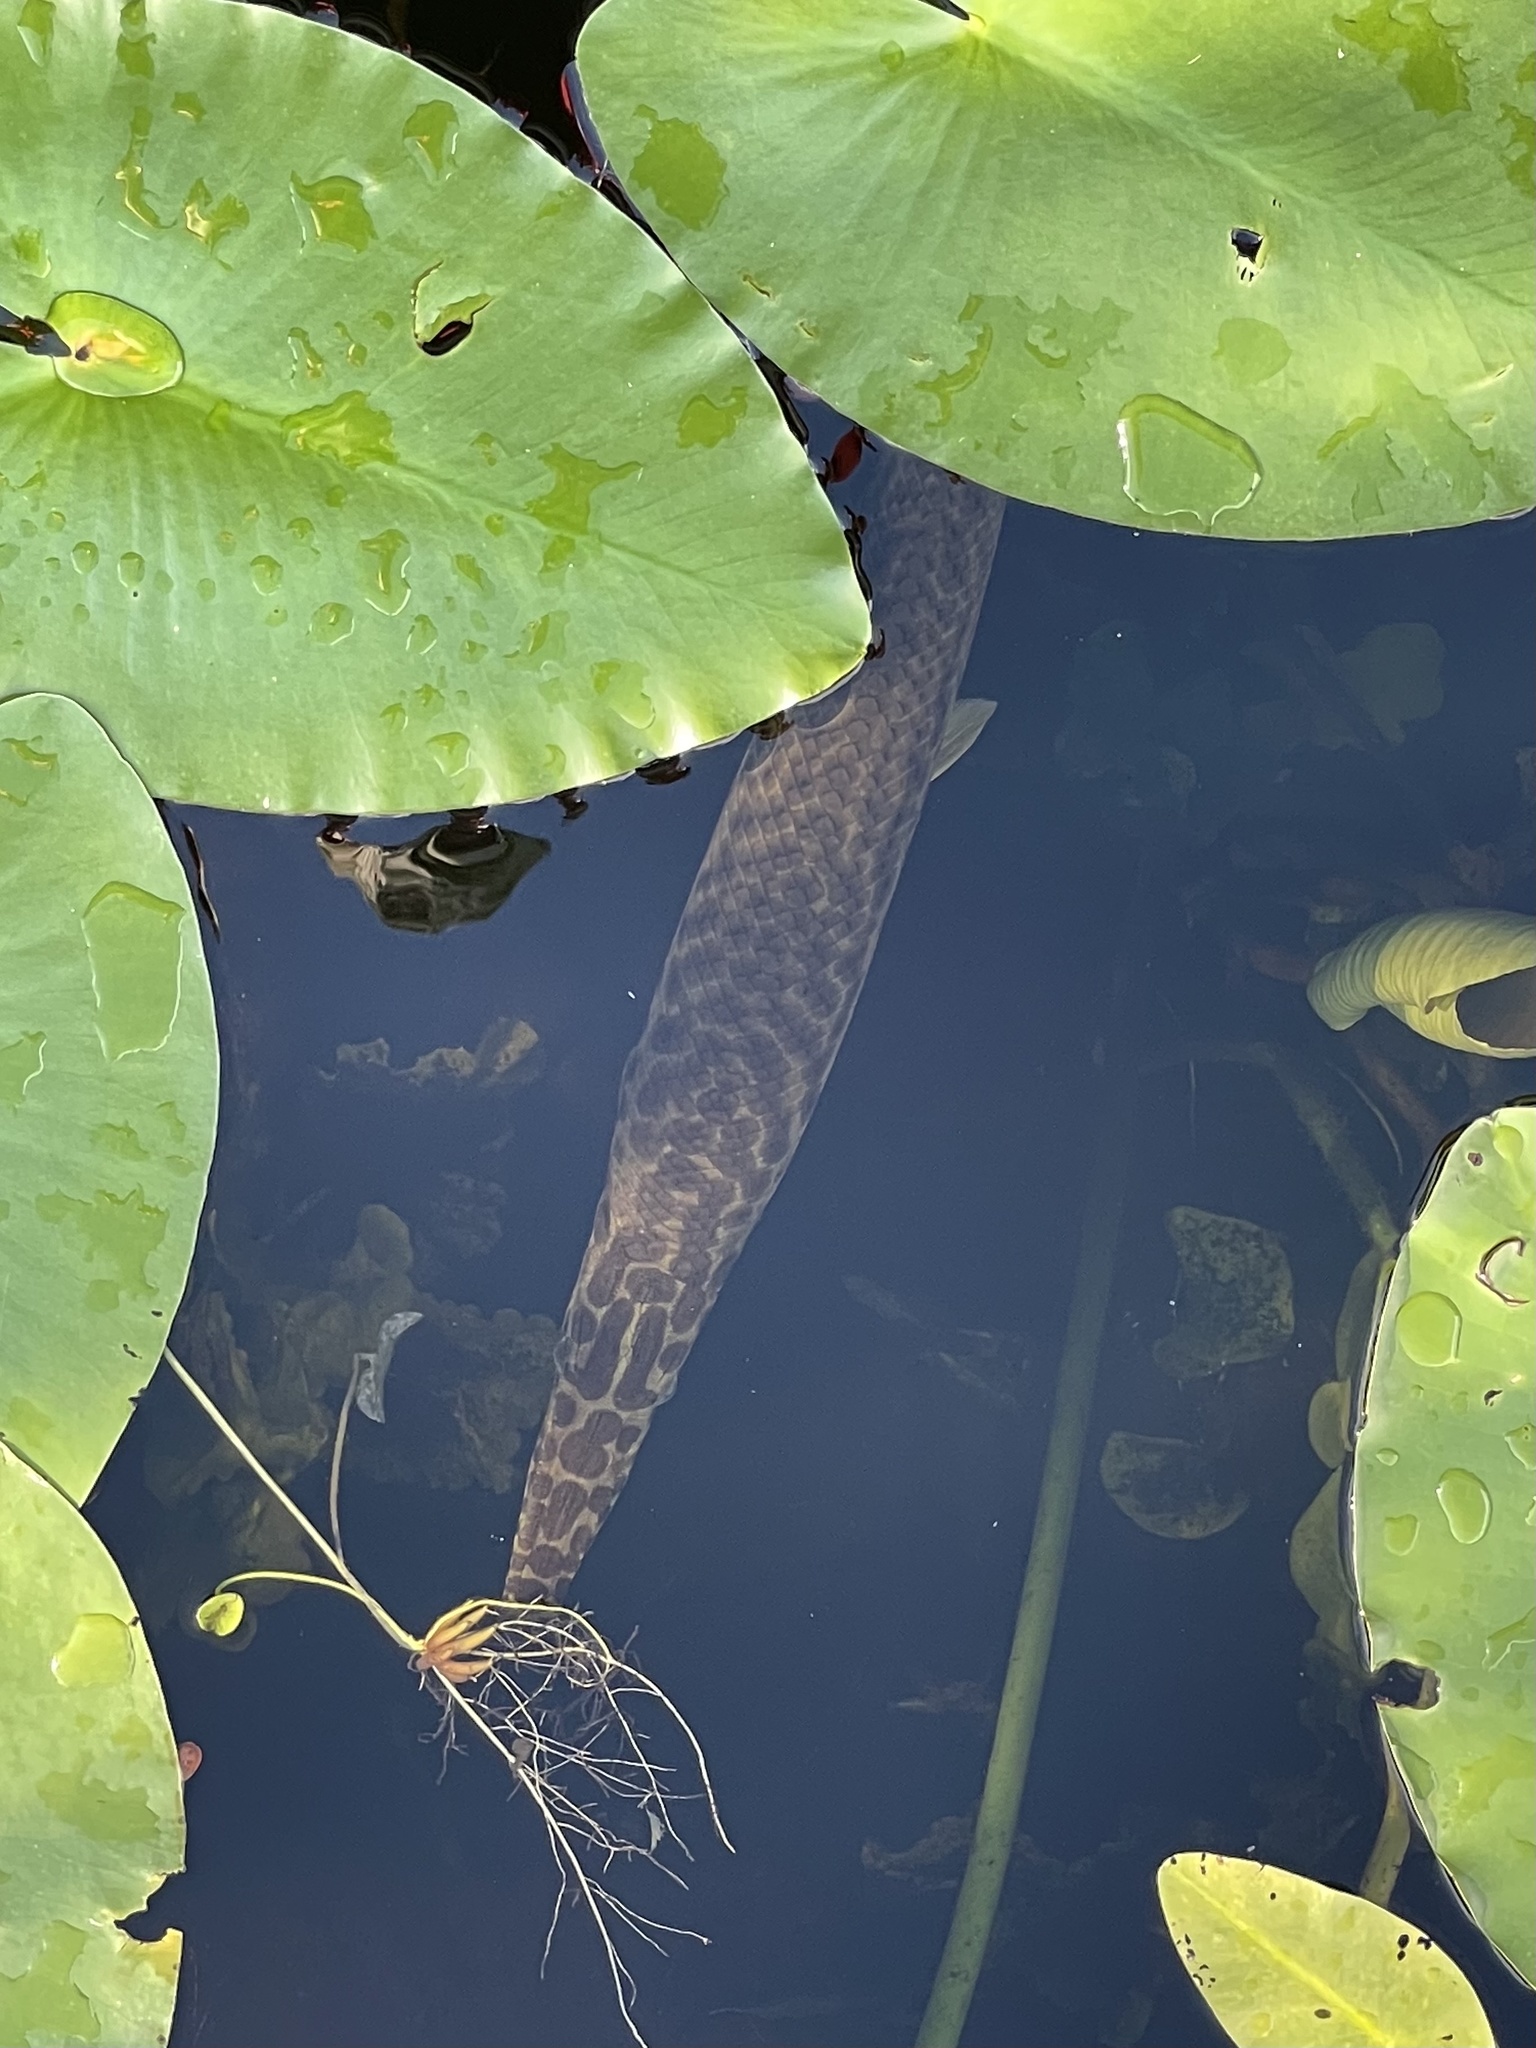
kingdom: Animalia
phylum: Chordata
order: Lepisosteiformes
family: Lepisosteidae
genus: Lepisosteus
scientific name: Lepisosteus platyrhincus
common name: Florida gar
